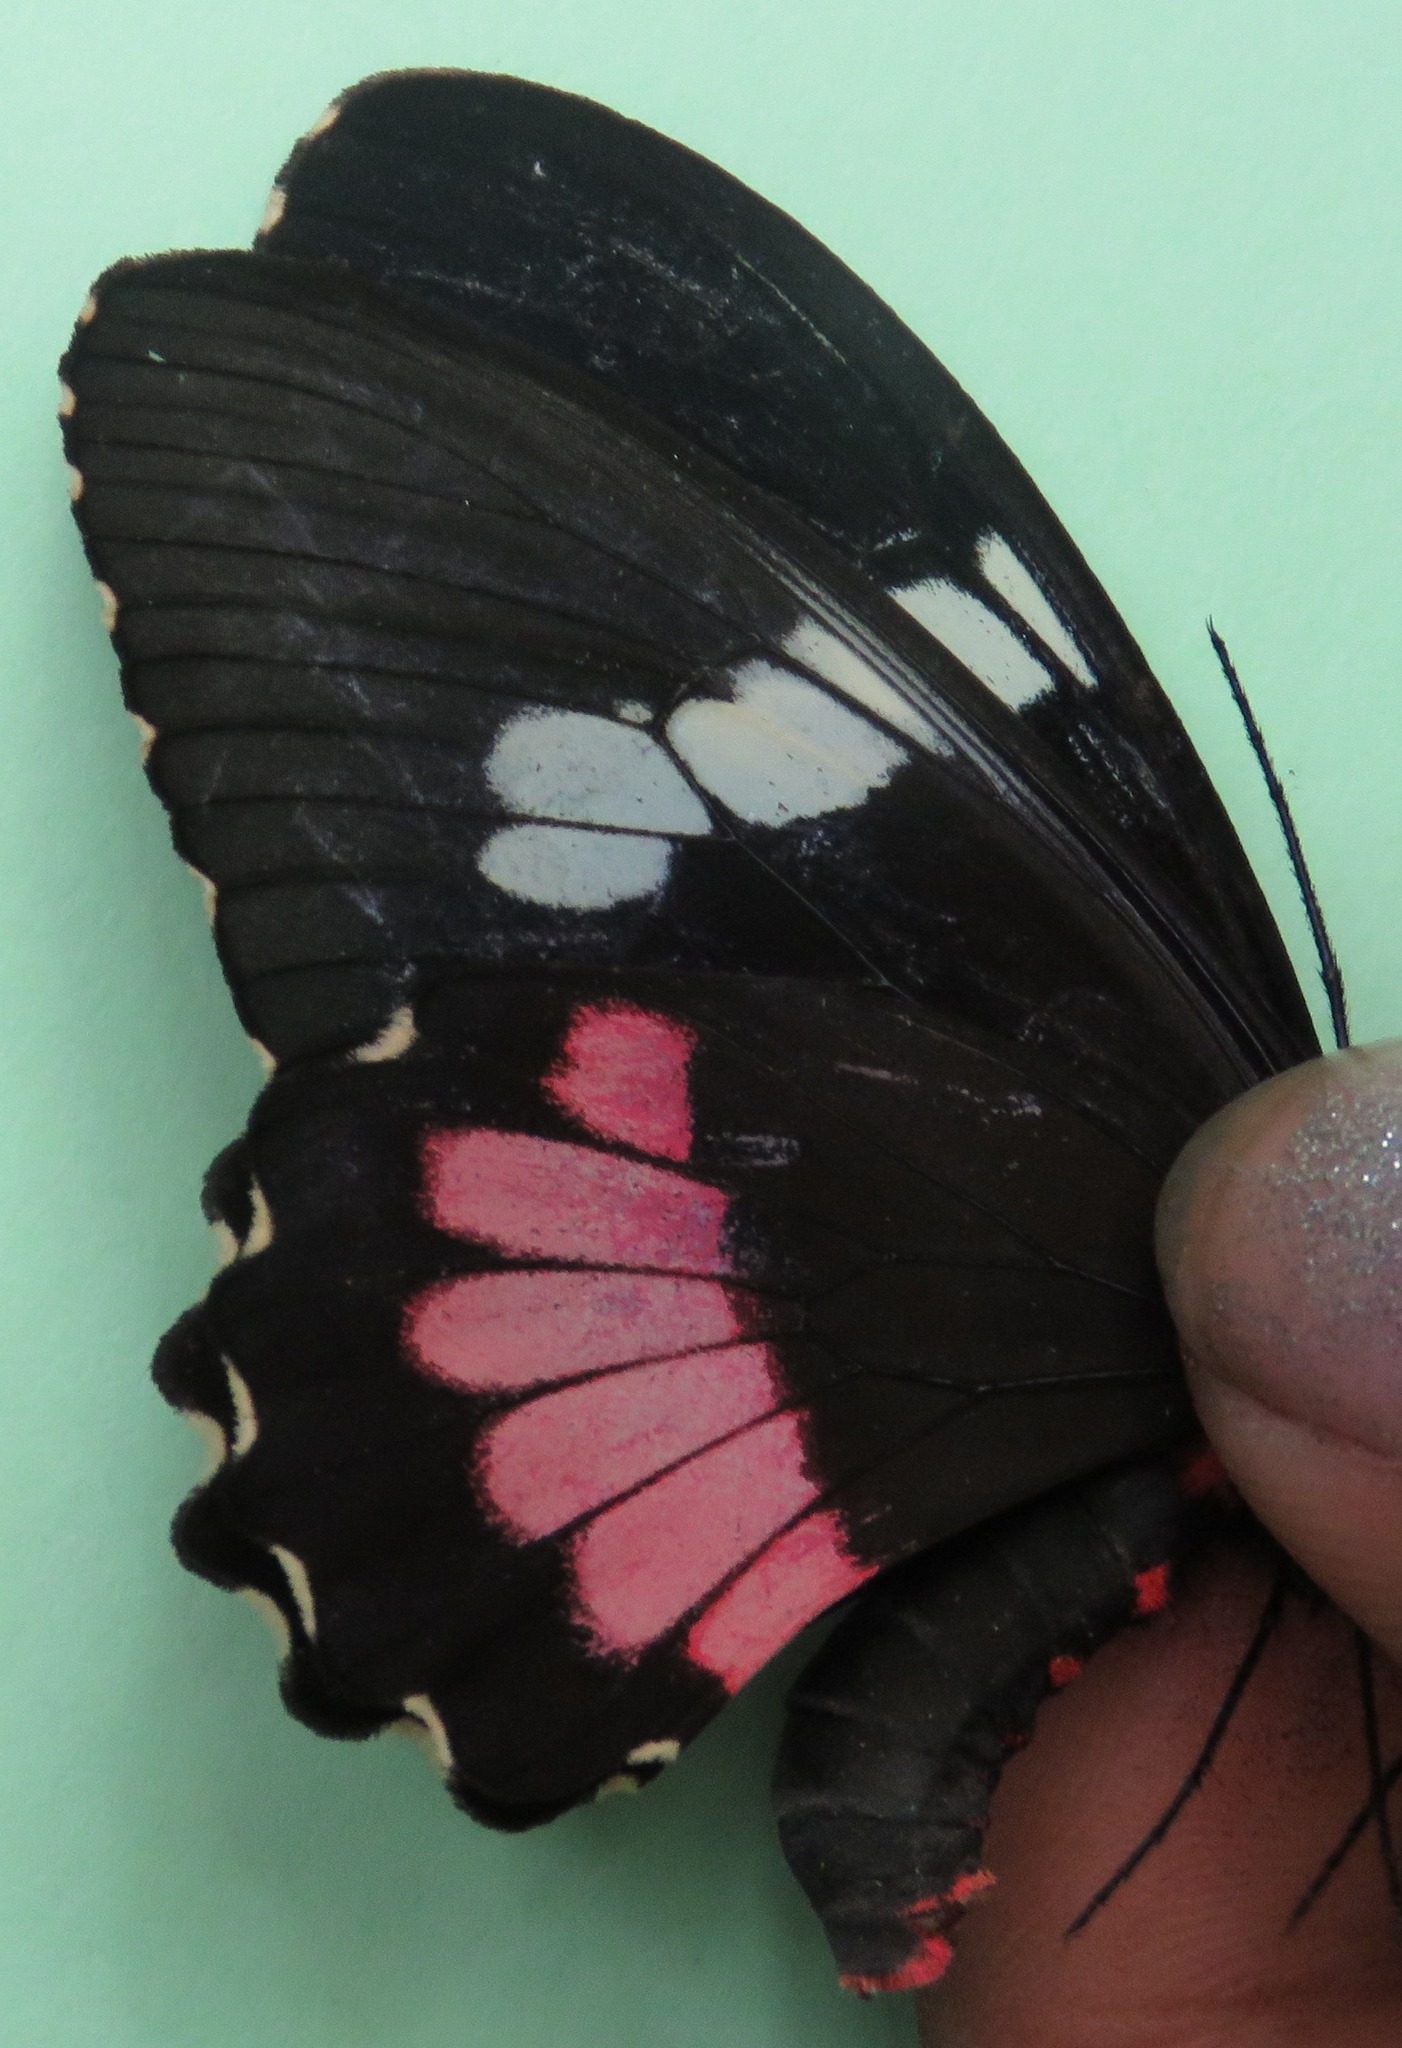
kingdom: Animalia
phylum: Arthropoda
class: Insecta
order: Lepidoptera
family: Papilionidae
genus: Parides
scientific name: Parides iphidamas
